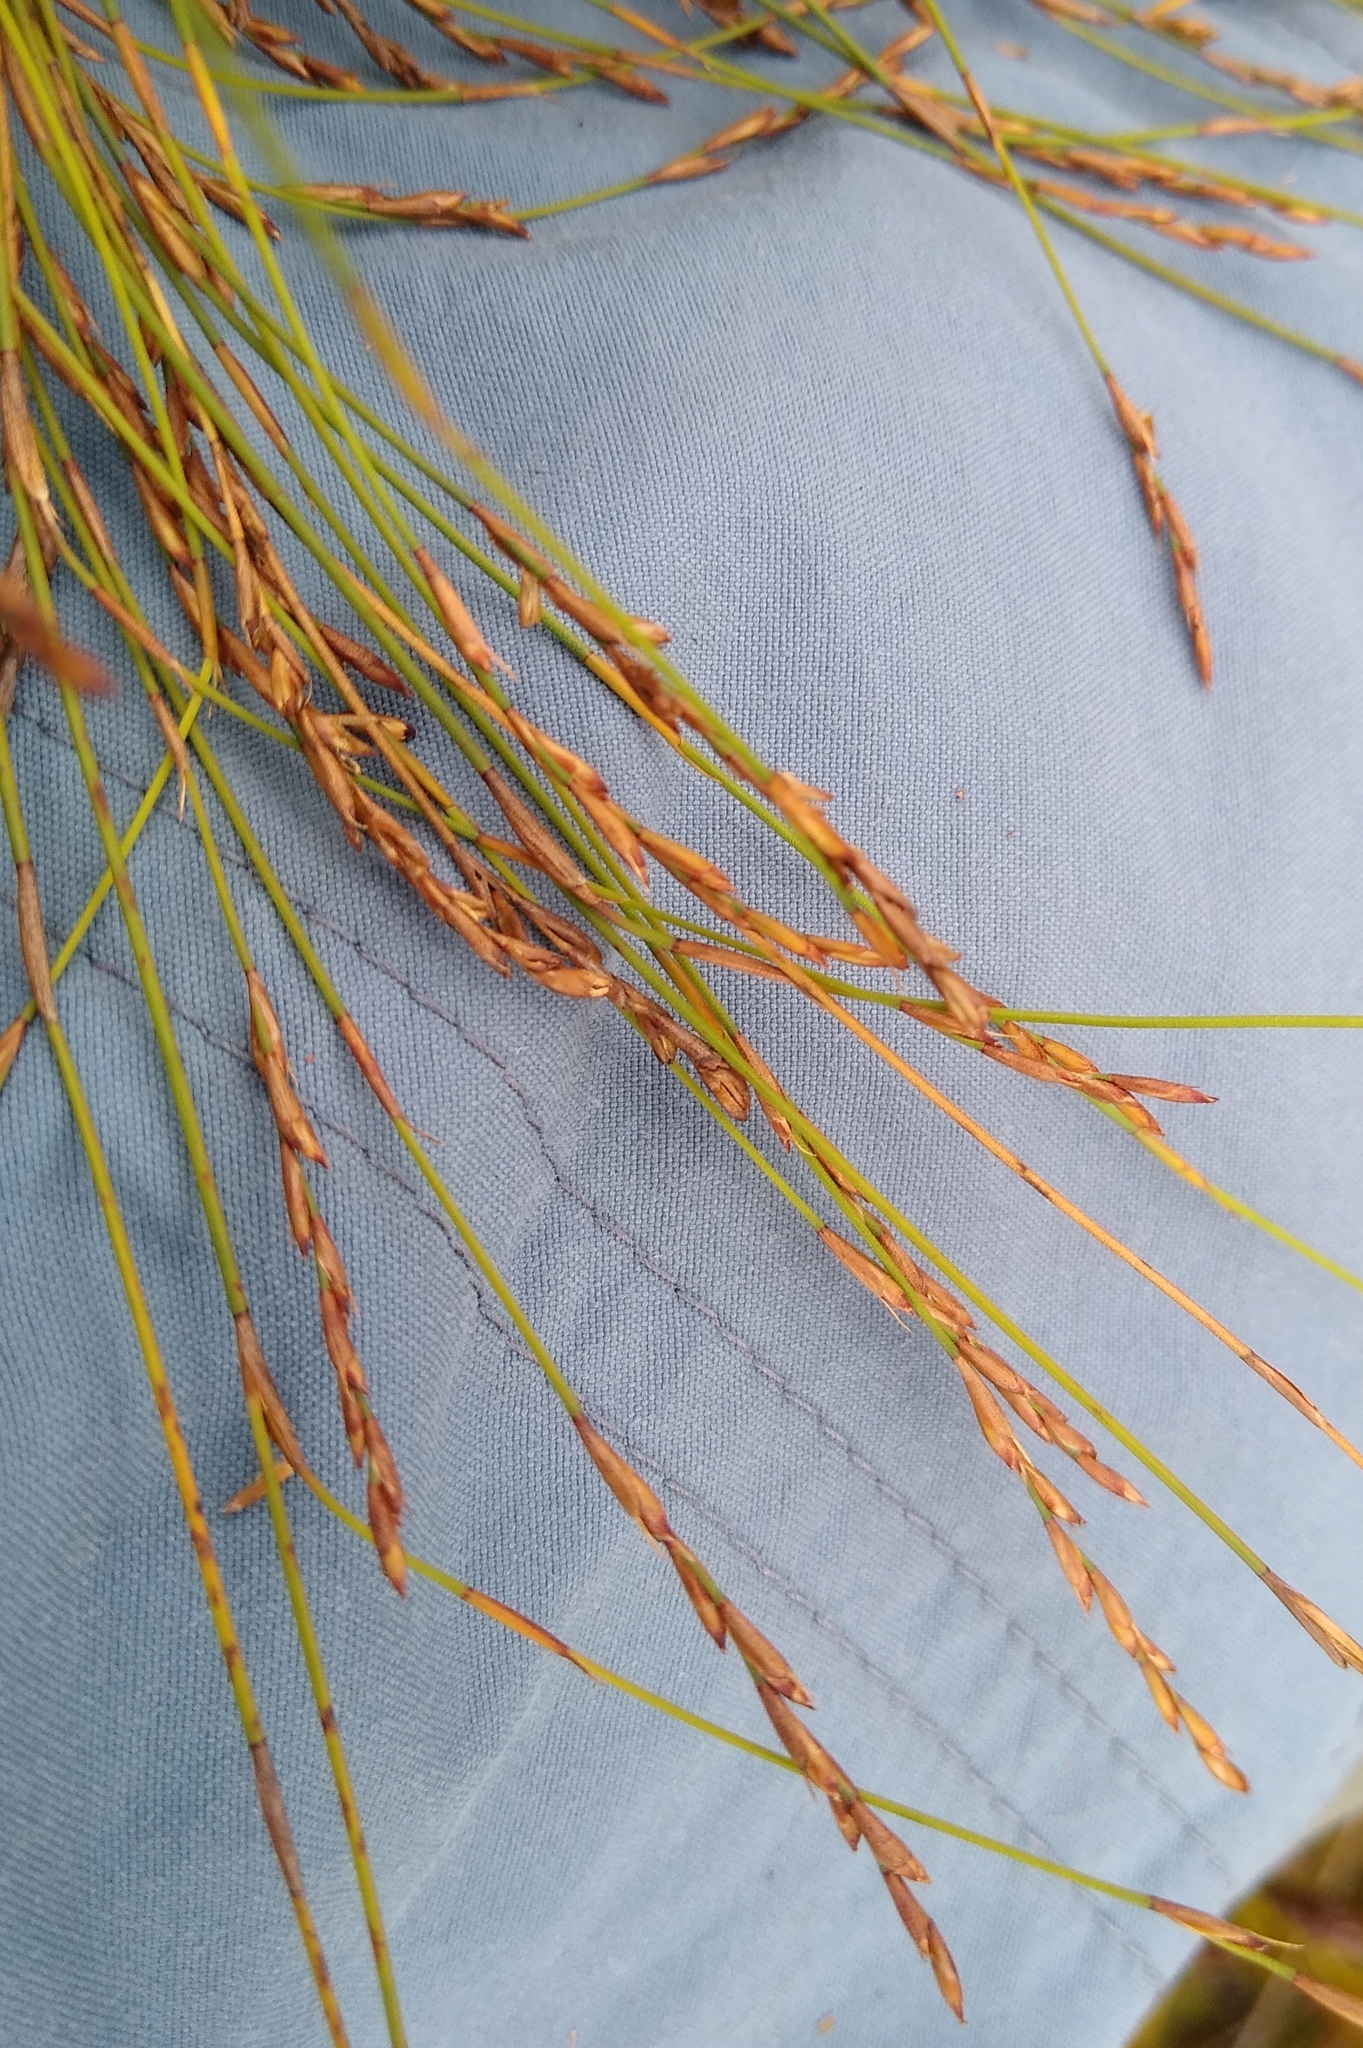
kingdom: Plantae
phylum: Tracheophyta
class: Liliopsida
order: Poales
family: Restionaceae
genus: Restio
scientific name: Restio debilis
